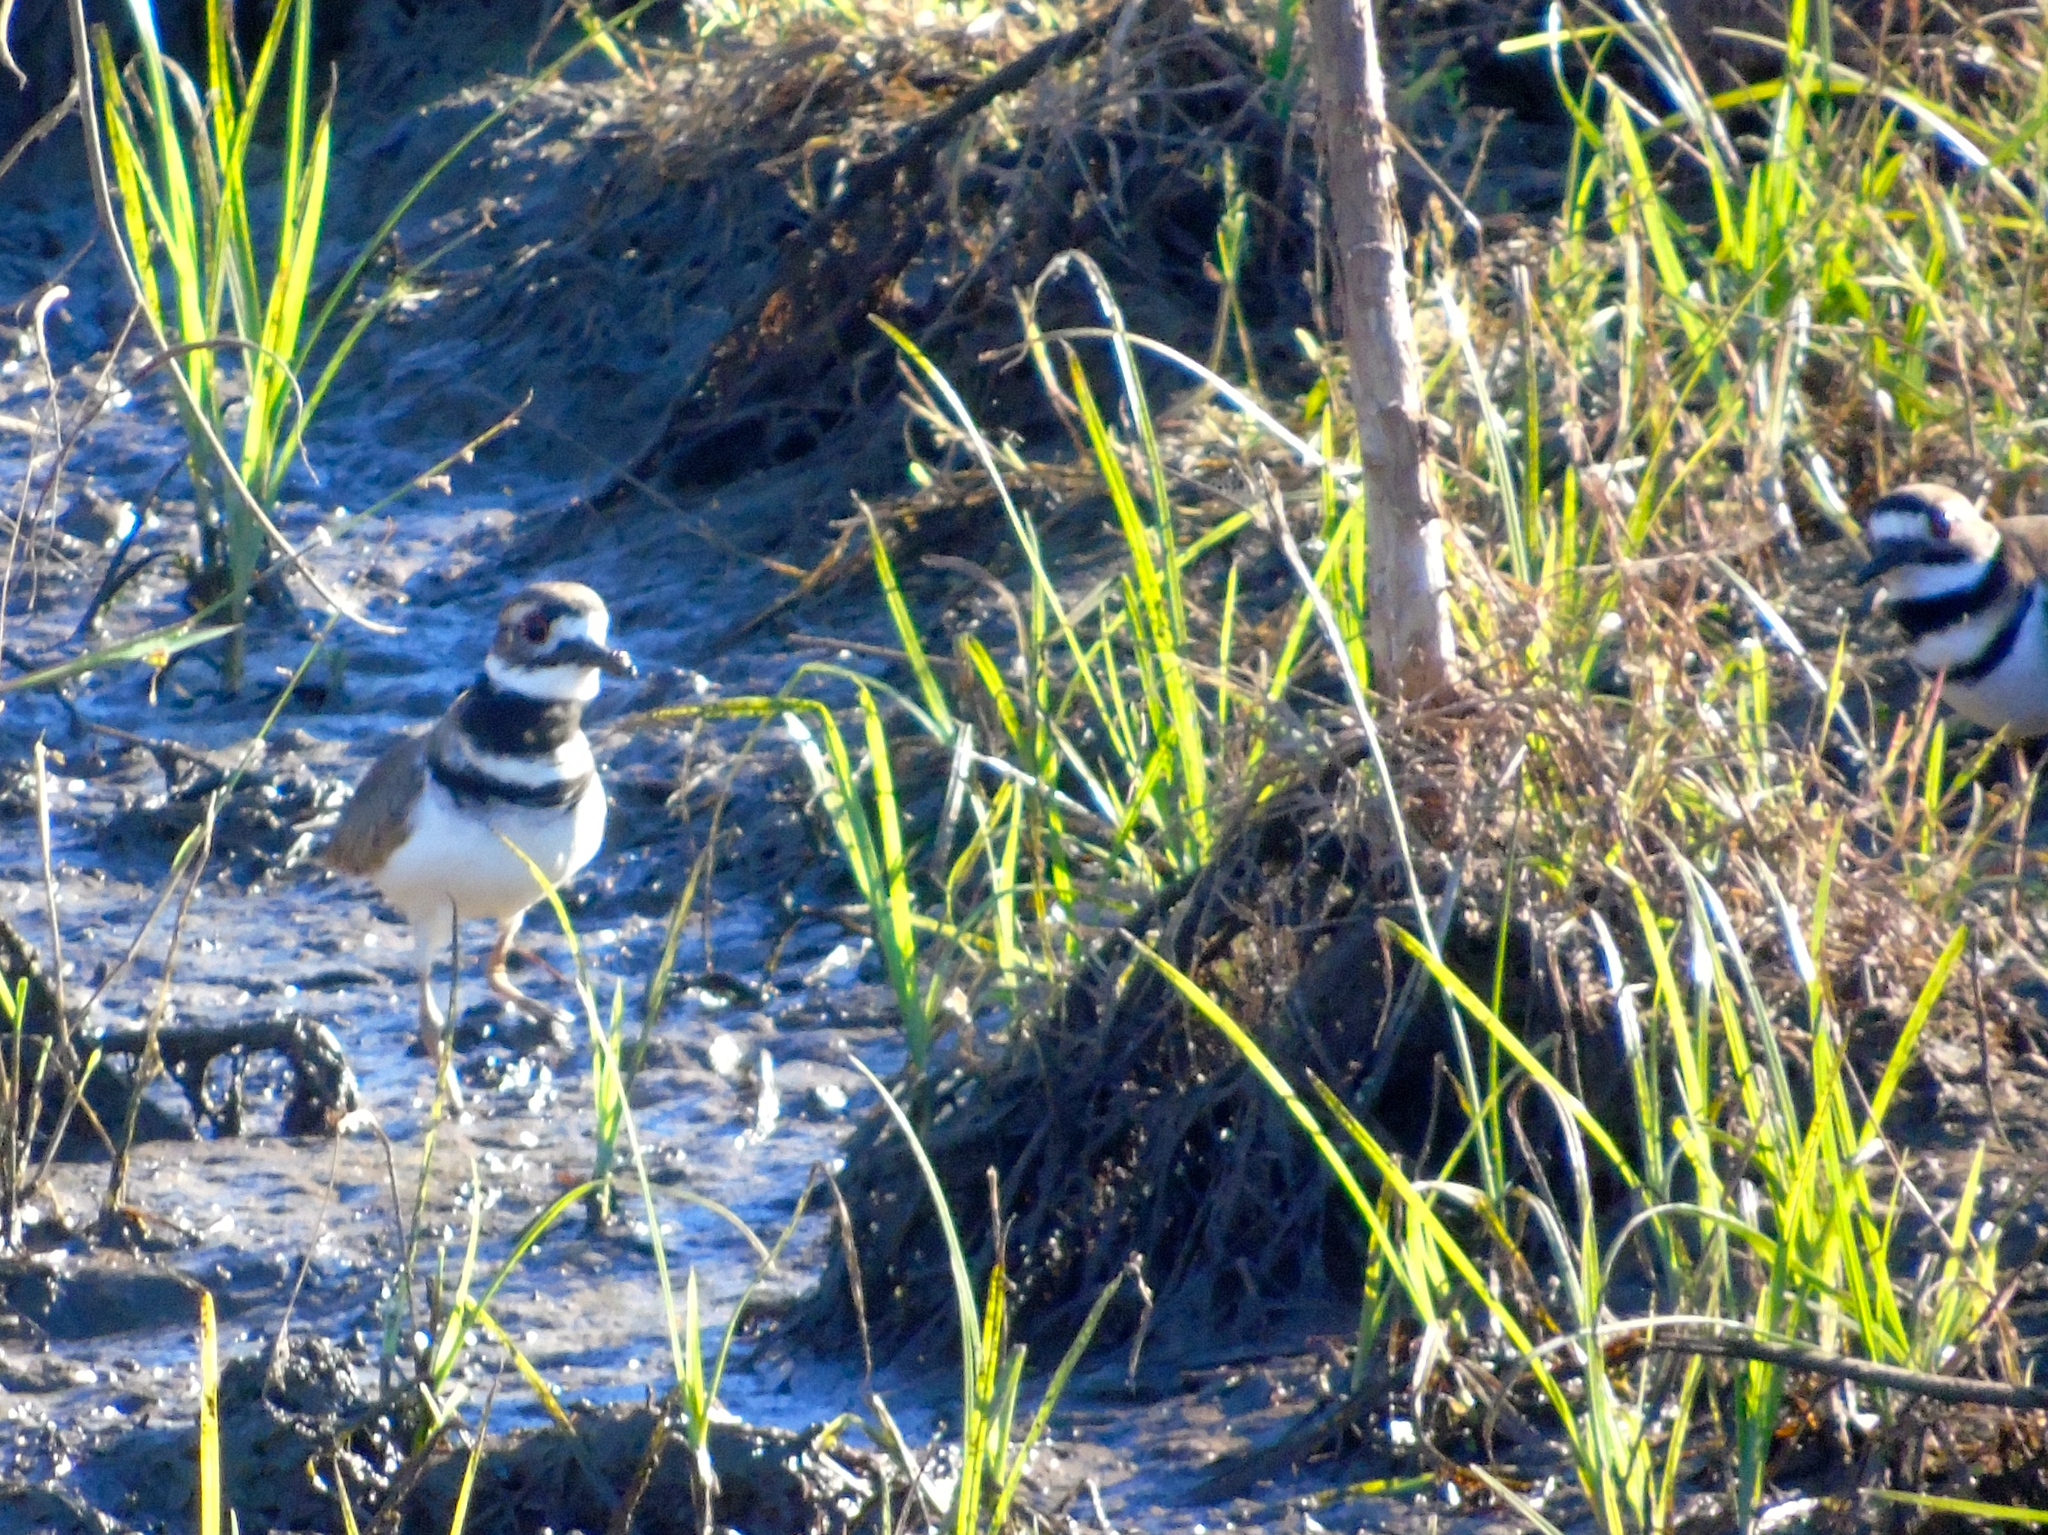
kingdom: Animalia
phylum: Chordata
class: Aves
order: Charadriiformes
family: Charadriidae
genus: Charadrius
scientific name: Charadrius vociferus
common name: Killdeer
